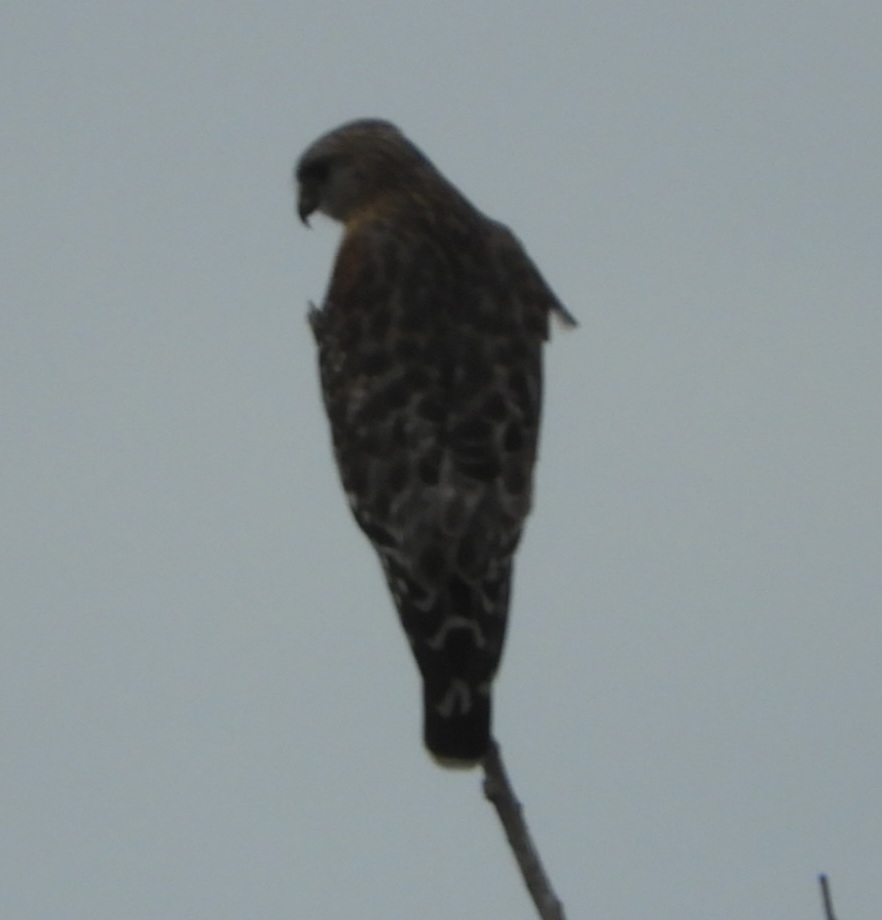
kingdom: Animalia
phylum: Chordata
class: Aves
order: Accipitriformes
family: Accipitridae
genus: Buteo
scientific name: Buteo lineatus
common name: Red-shouldered hawk
